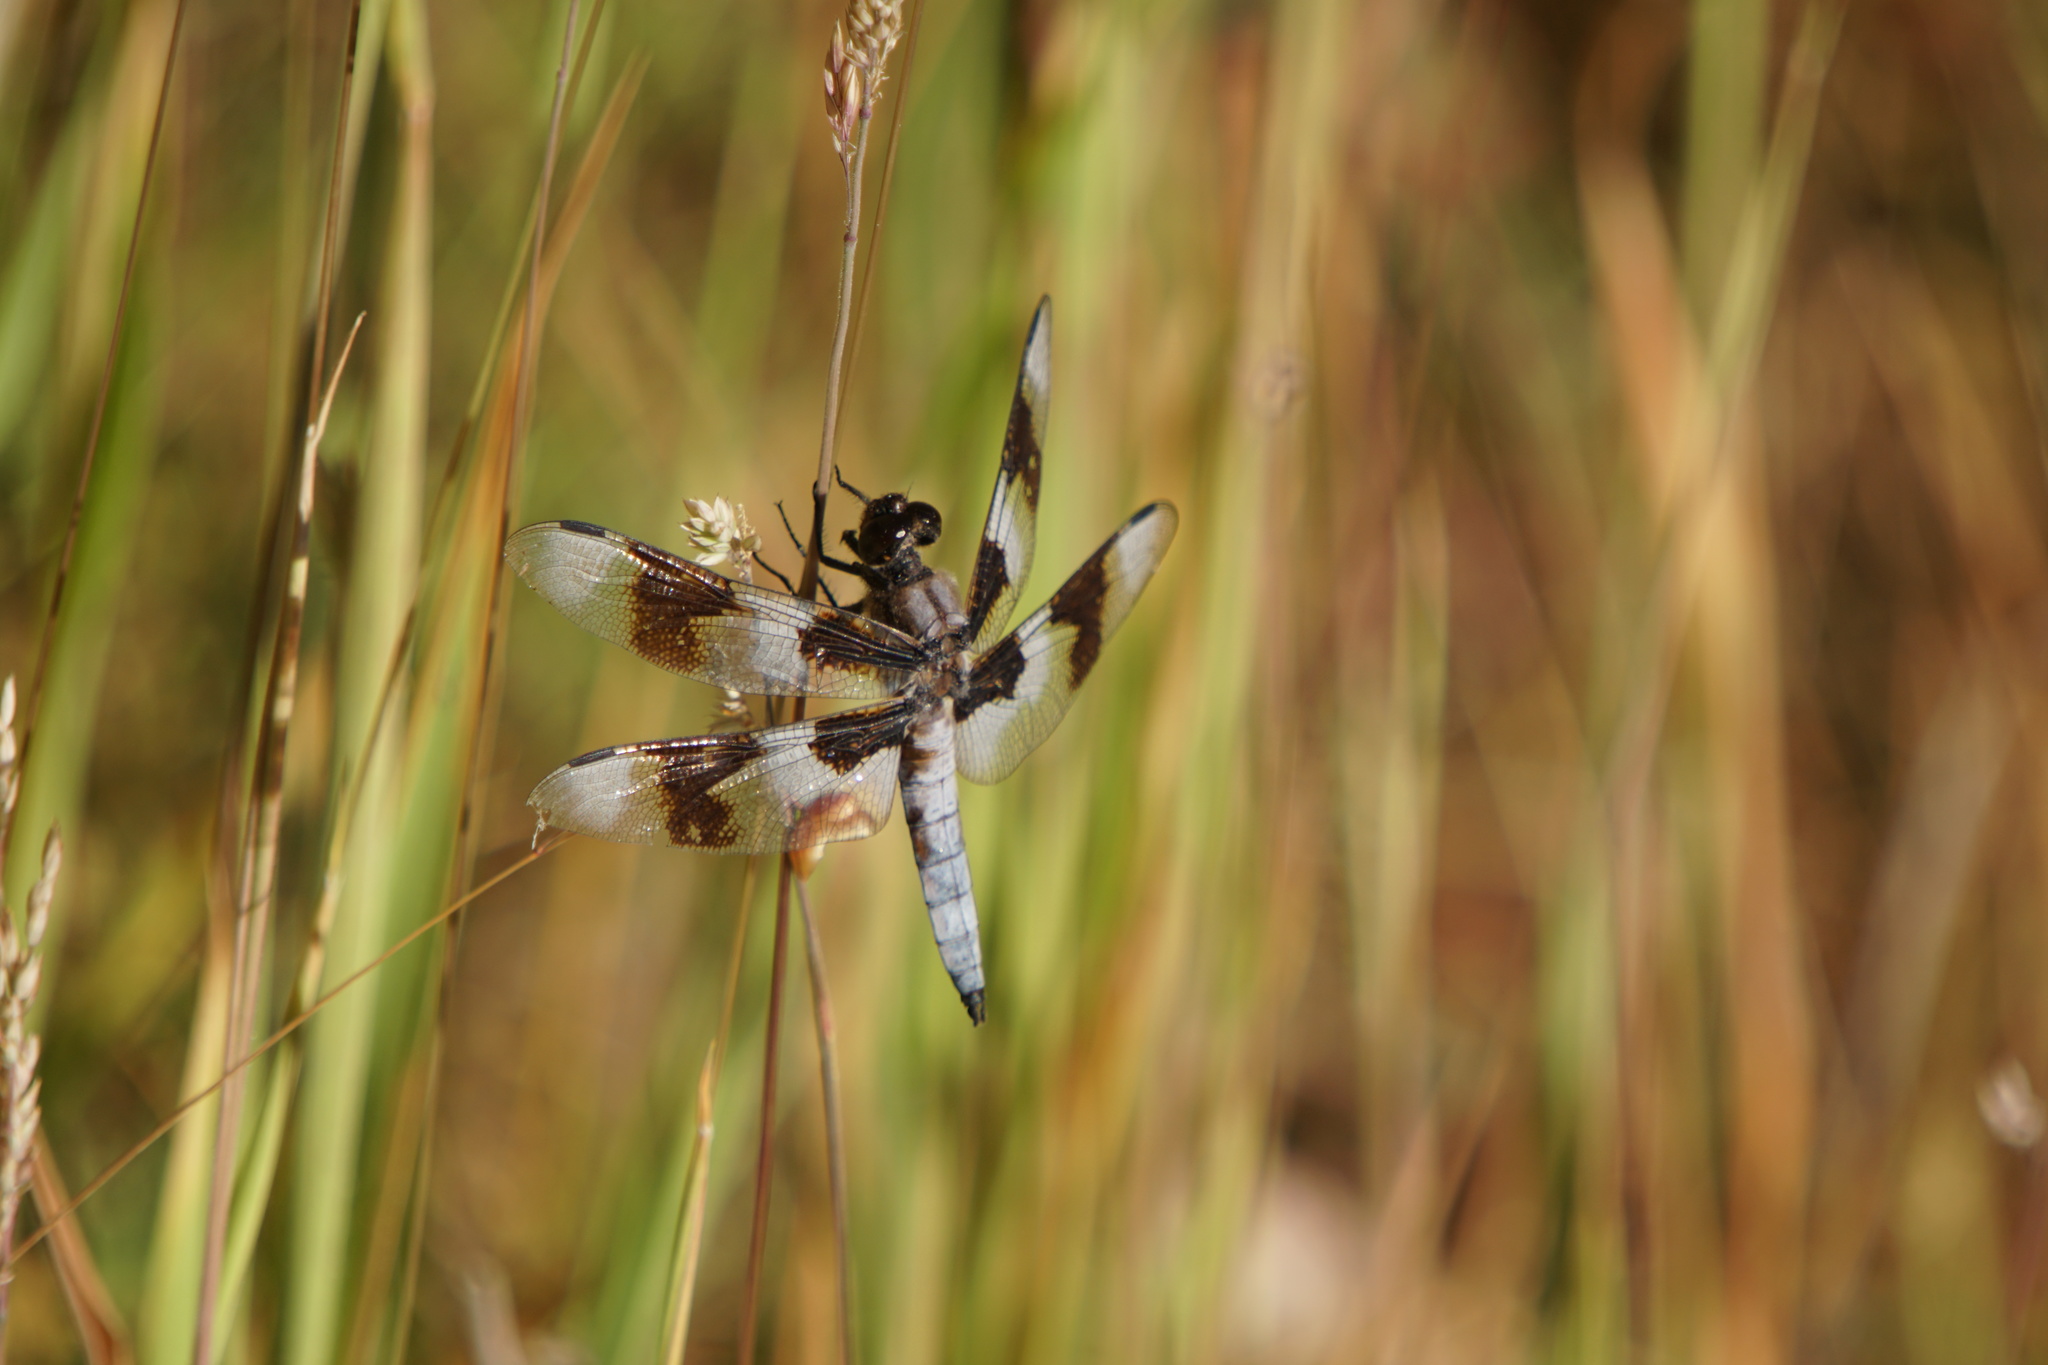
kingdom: Animalia
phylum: Arthropoda
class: Insecta
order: Odonata
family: Libellulidae
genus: Libellula
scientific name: Libellula forensis
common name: Eight-spotted skimmer
